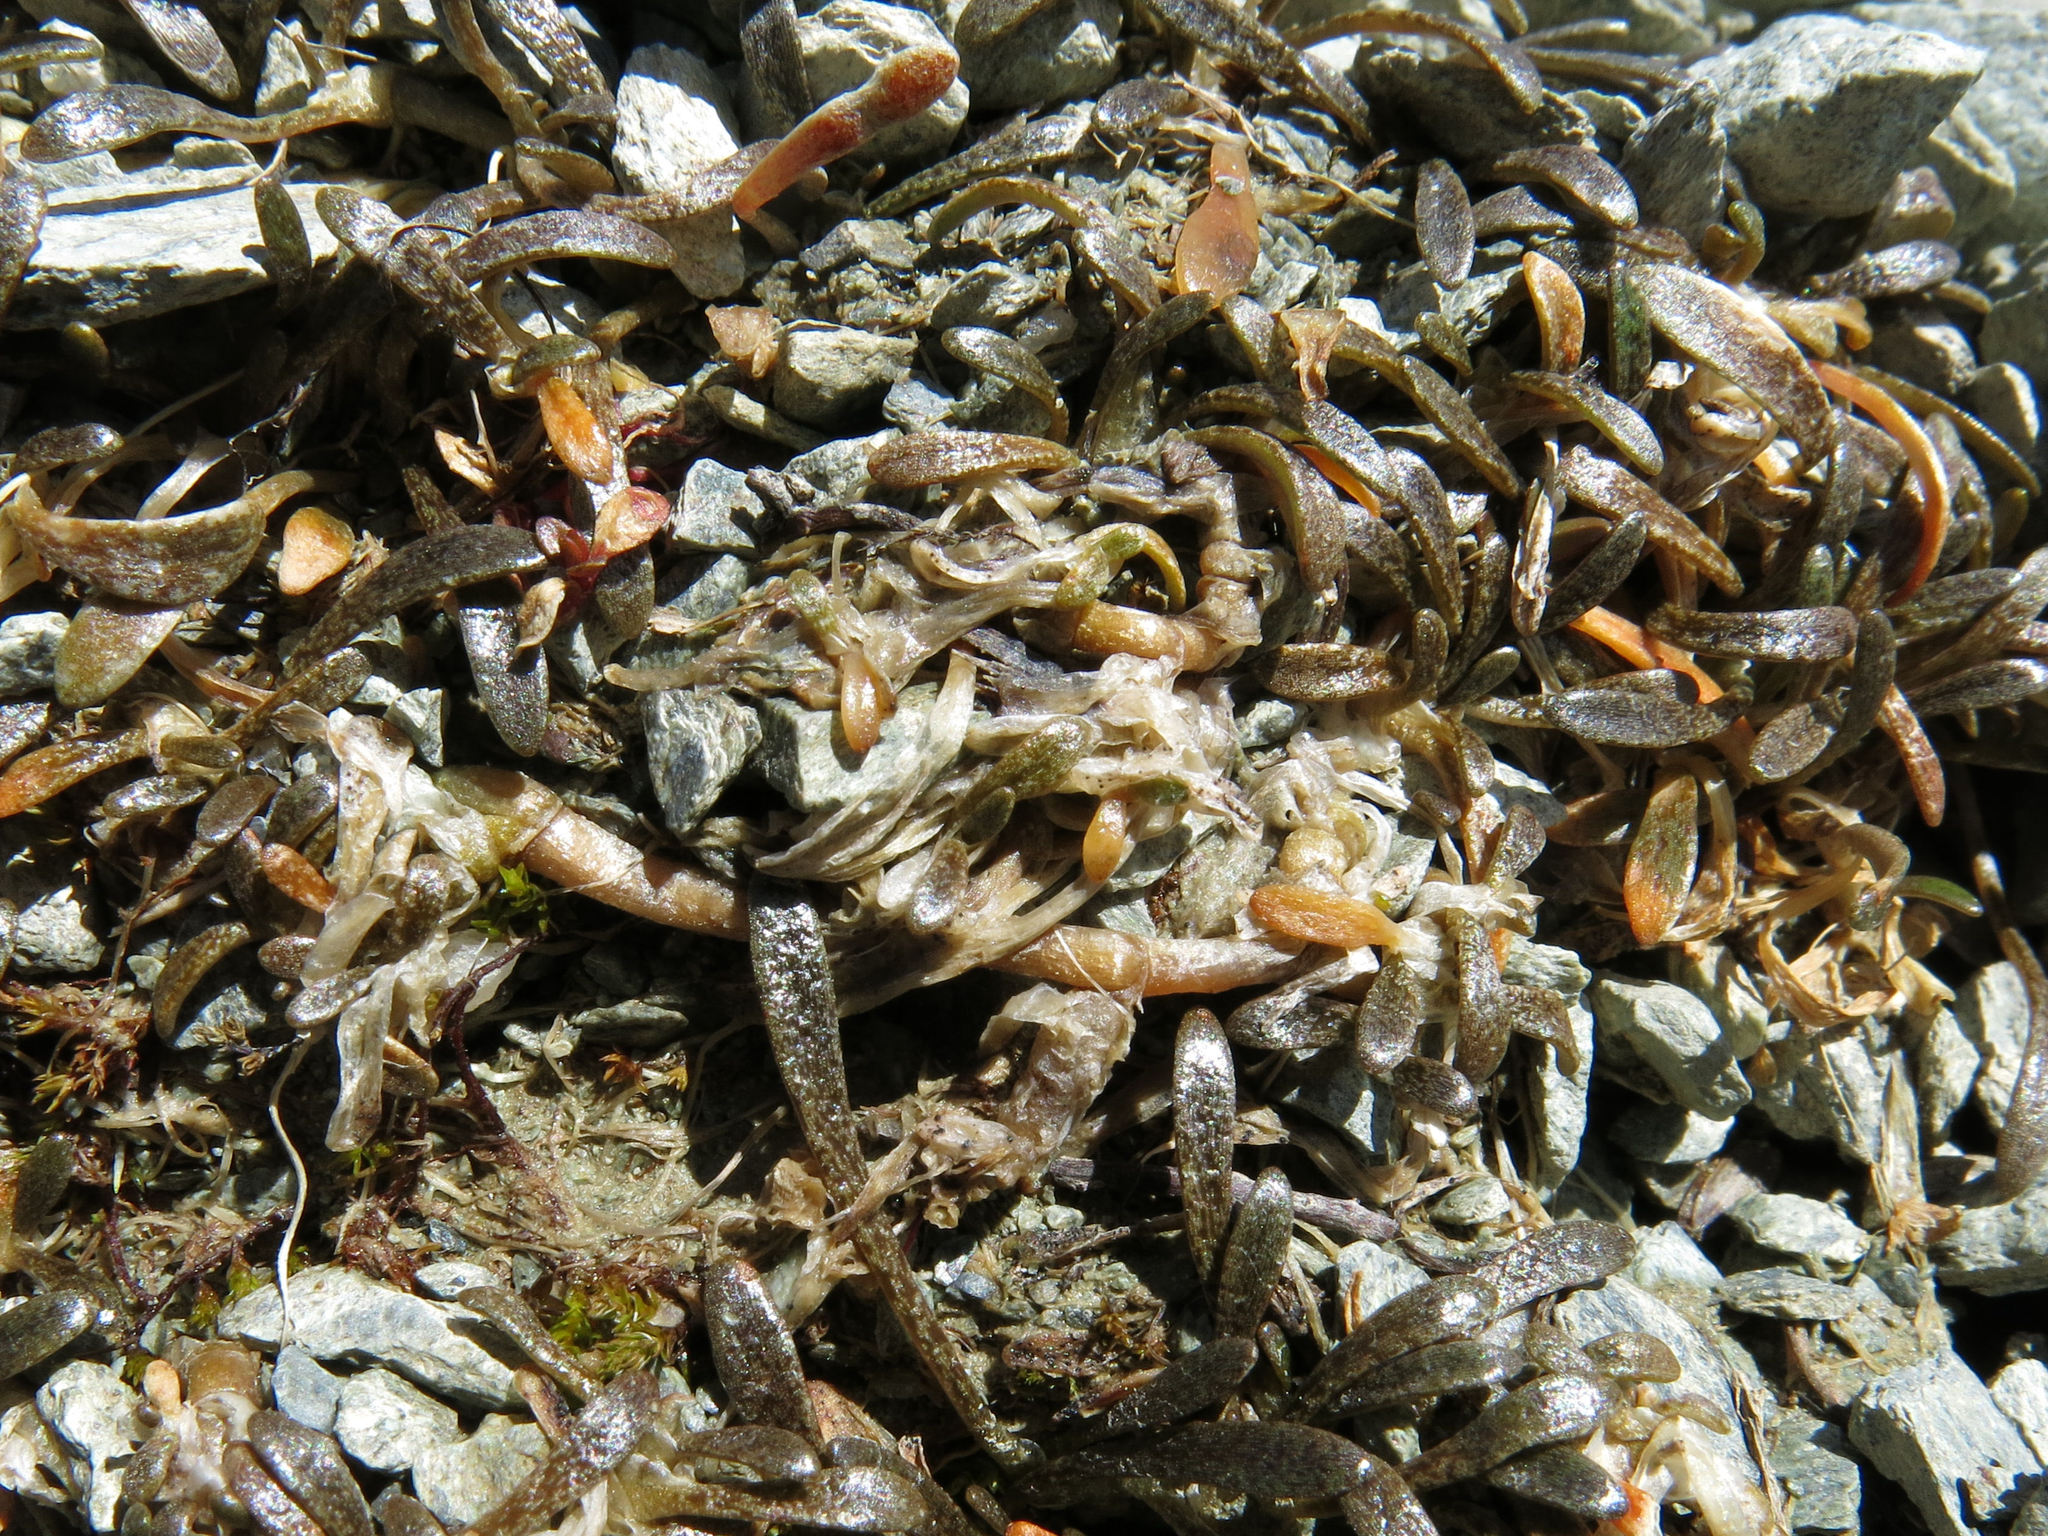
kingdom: Plantae
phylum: Tracheophyta
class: Magnoliopsida
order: Caryophyllales
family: Montiaceae
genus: Montia
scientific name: Montia sessiliflora
